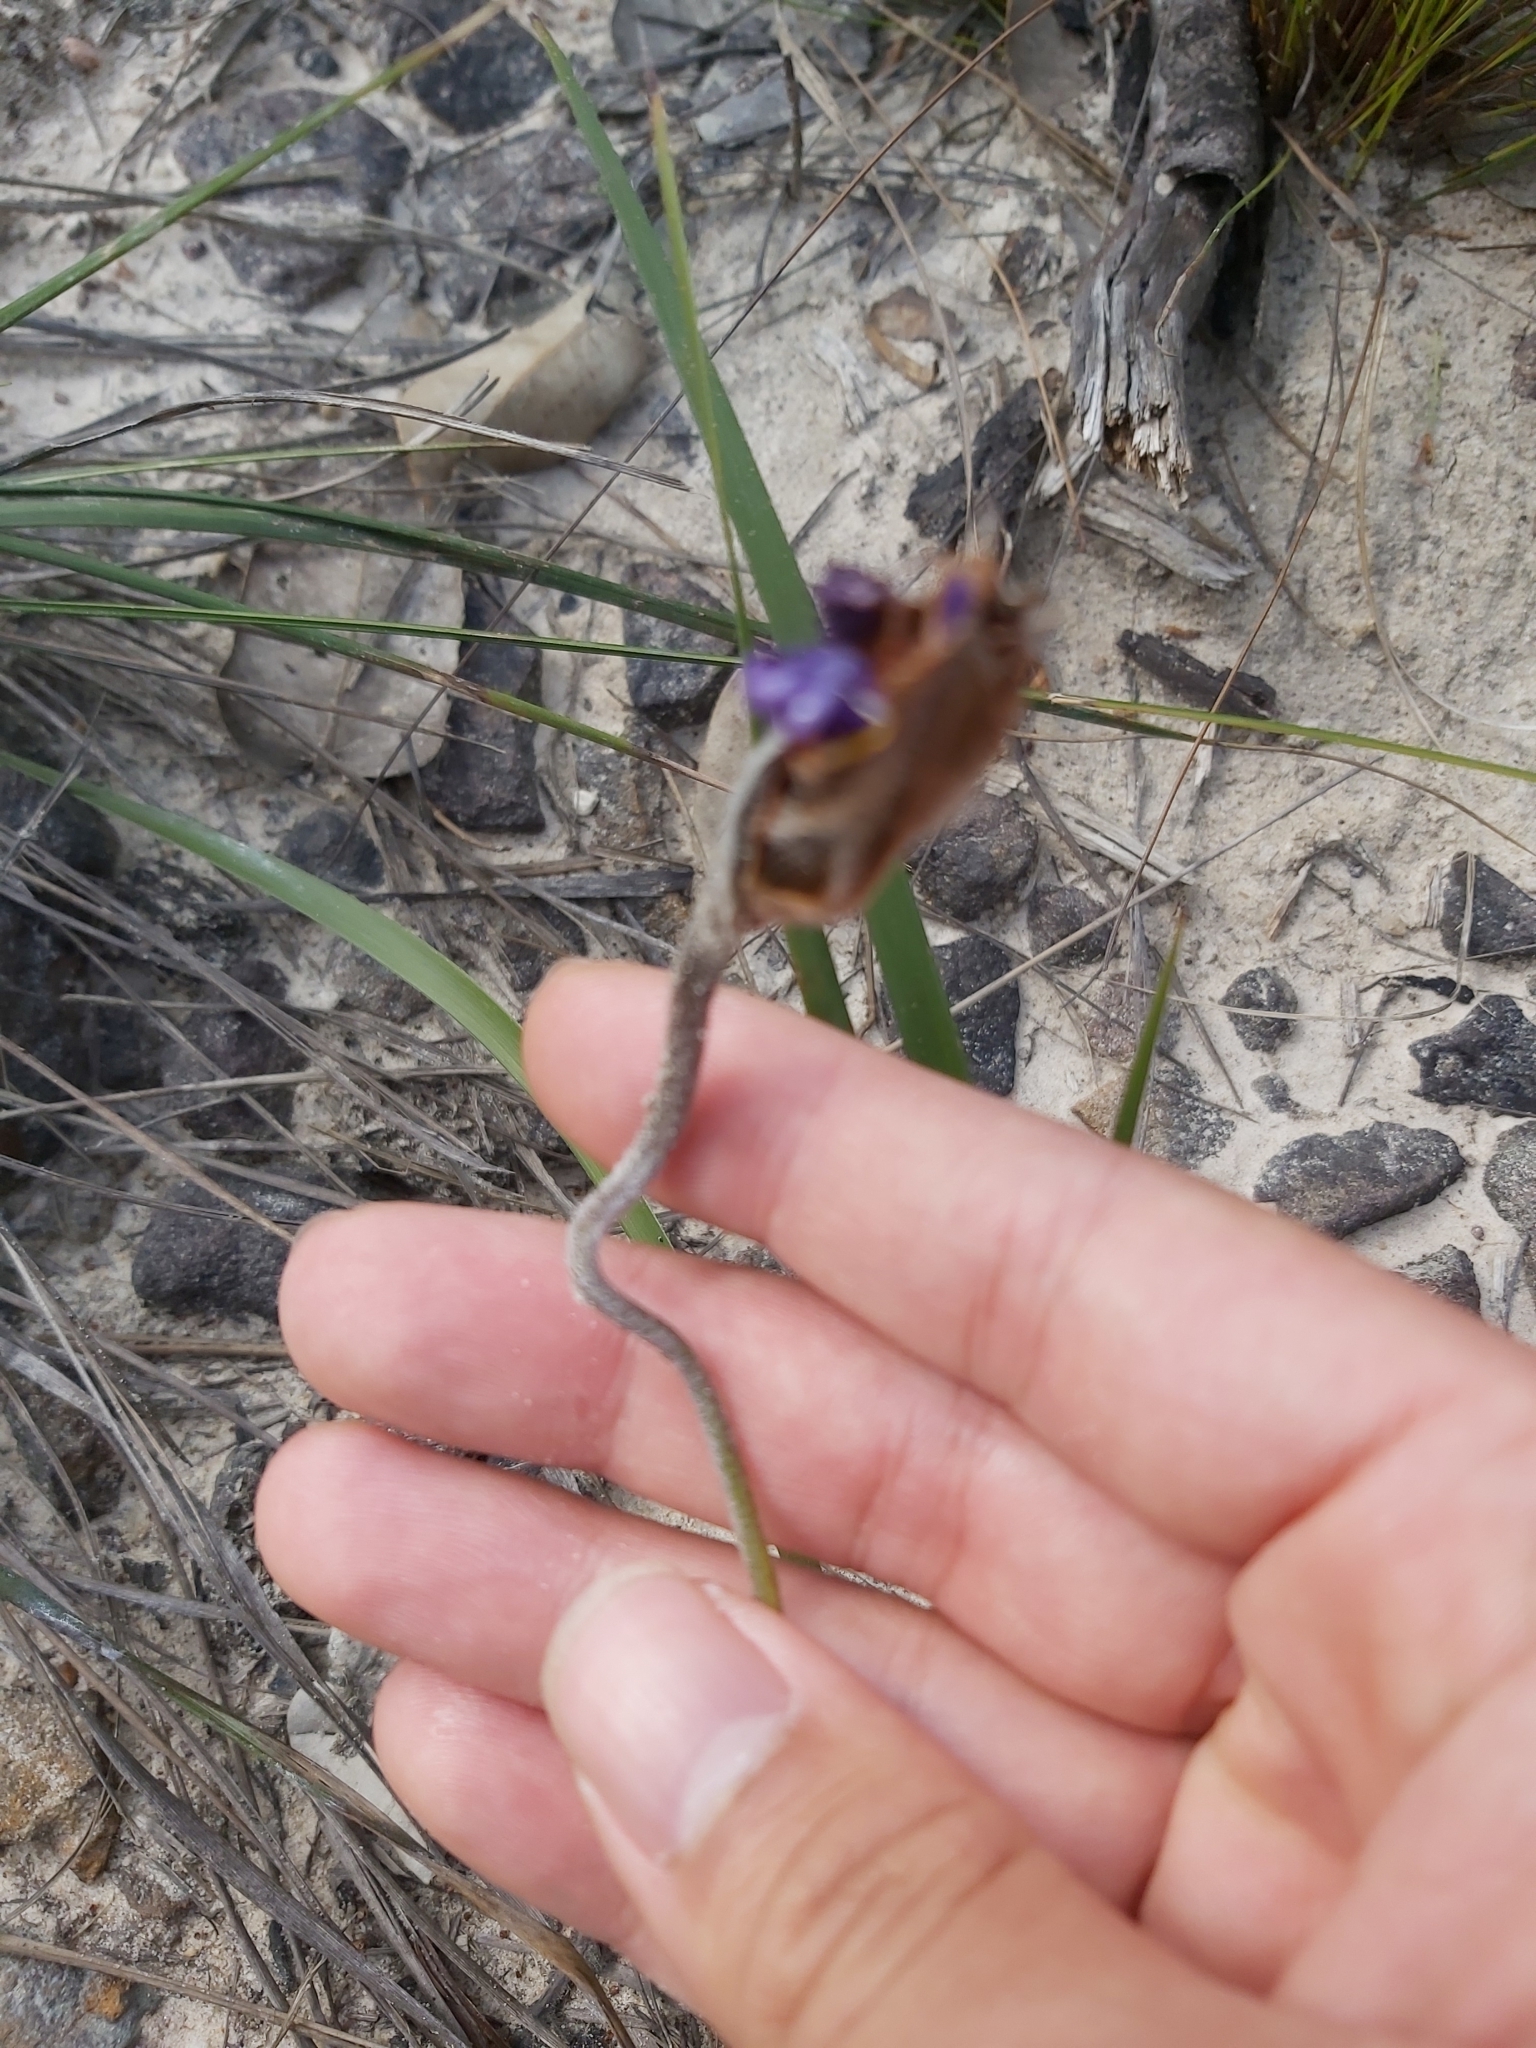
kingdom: Plantae
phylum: Tracheophyta
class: Liliopsida
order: Asparagales
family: Iridaceae
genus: Patersonia
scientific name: Patersonia sericea
